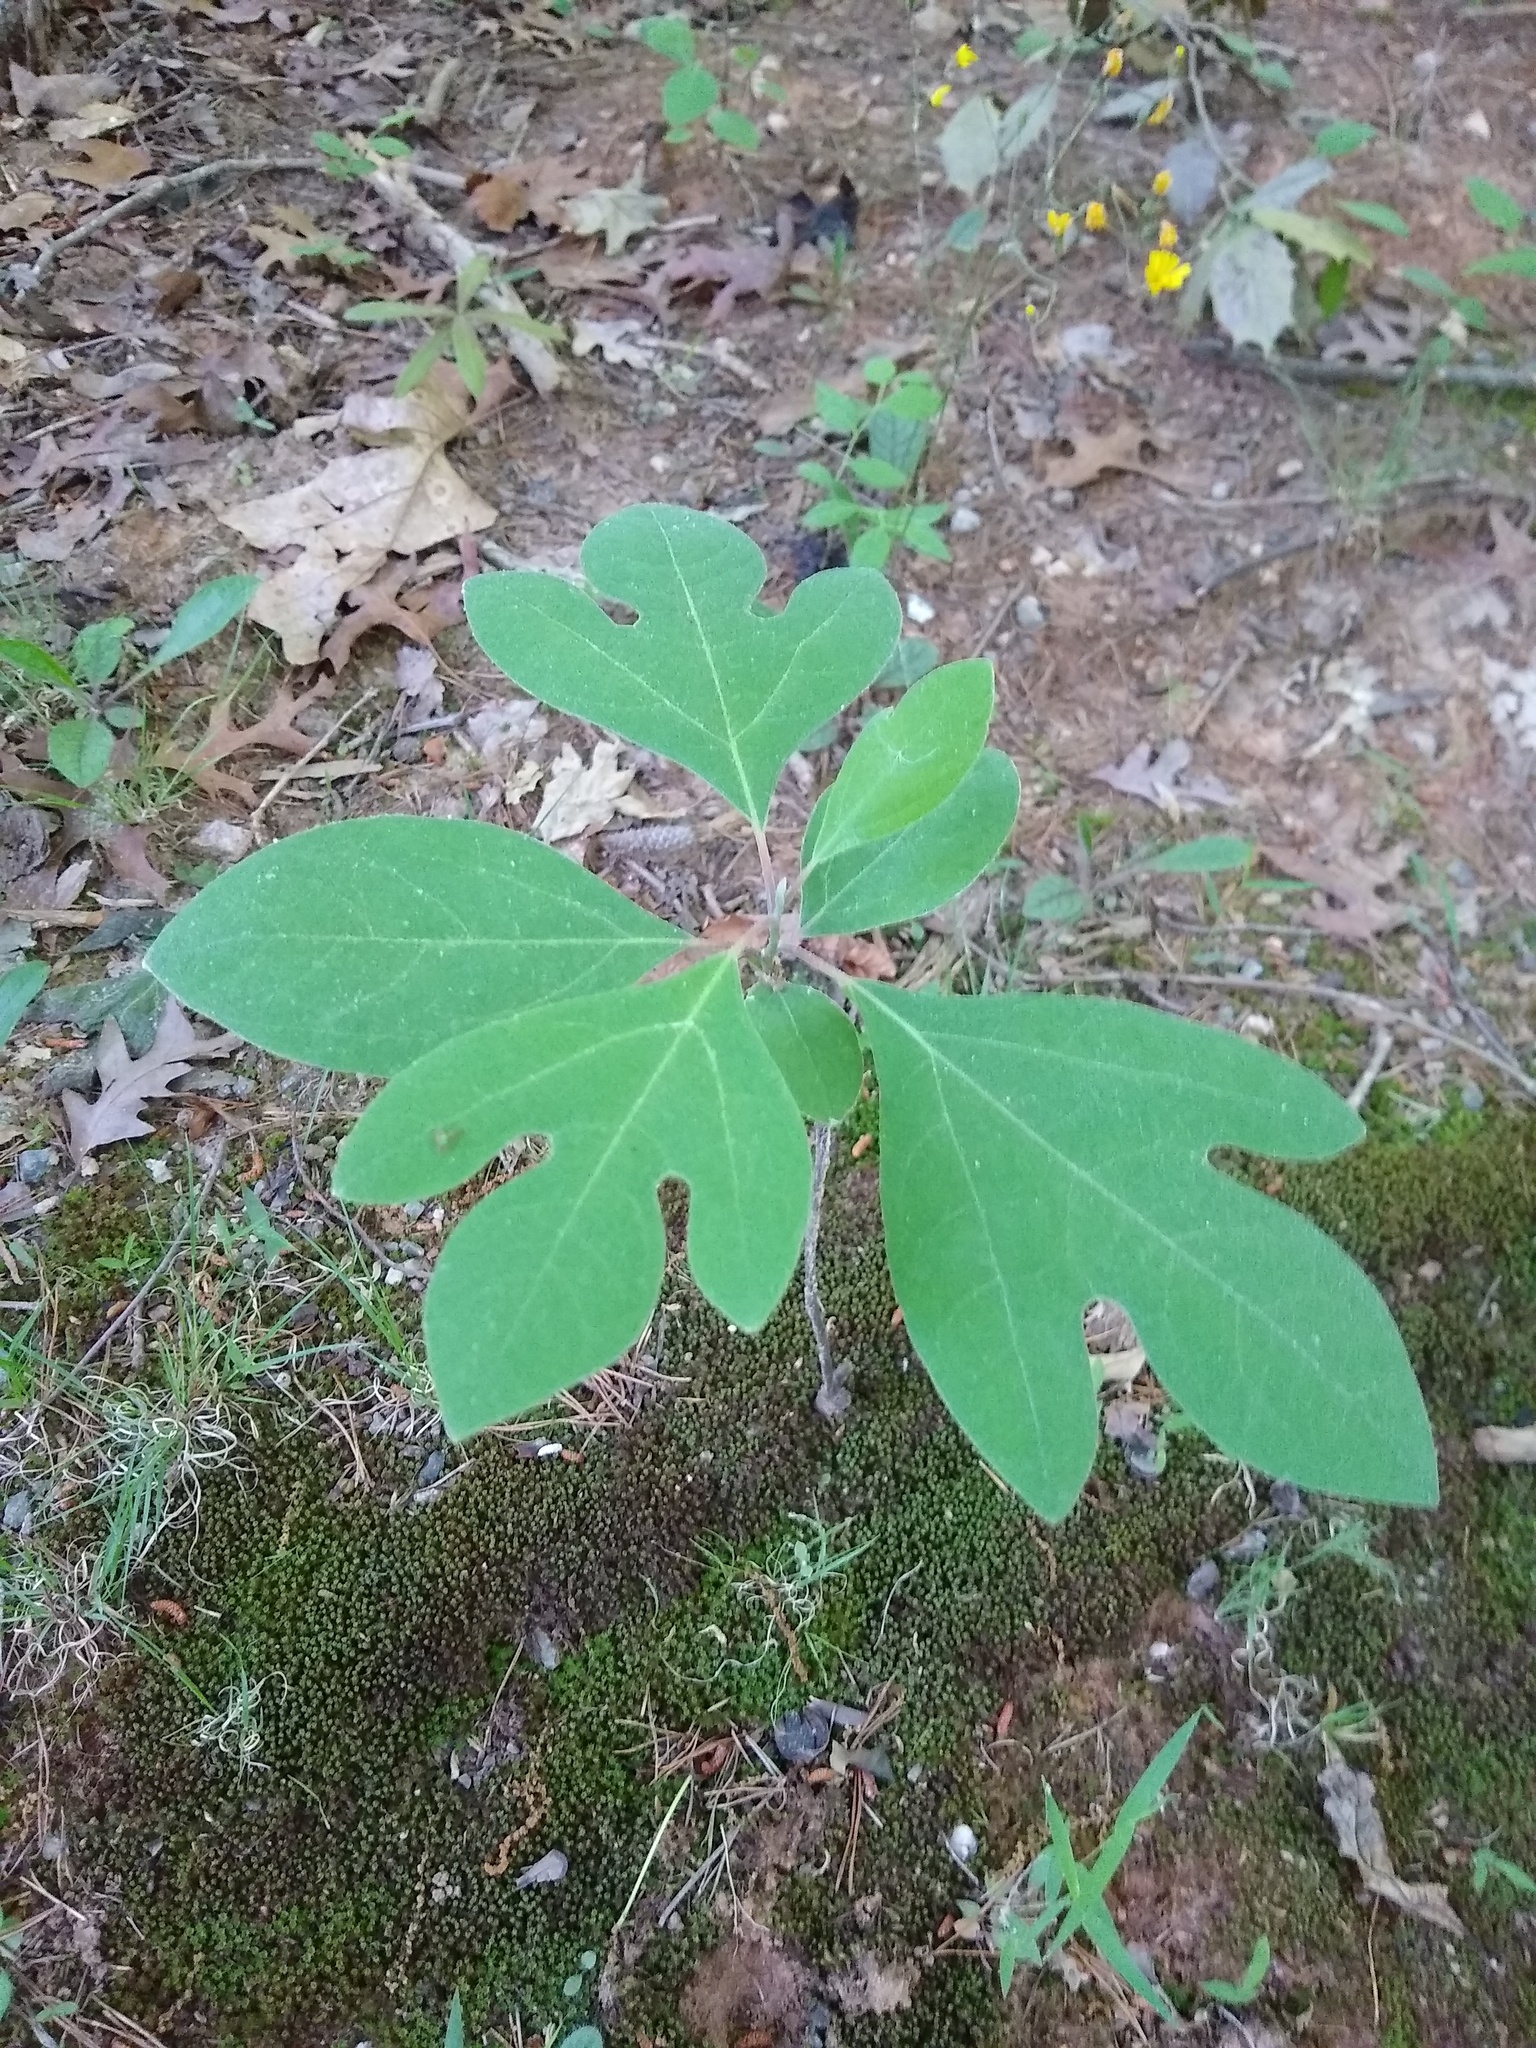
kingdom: Plantae
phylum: Tracheophyta
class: Magnoliopsida
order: Laurales
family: Lauraceae
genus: Sassafras
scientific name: Sassafras albidum
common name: Sassafras
